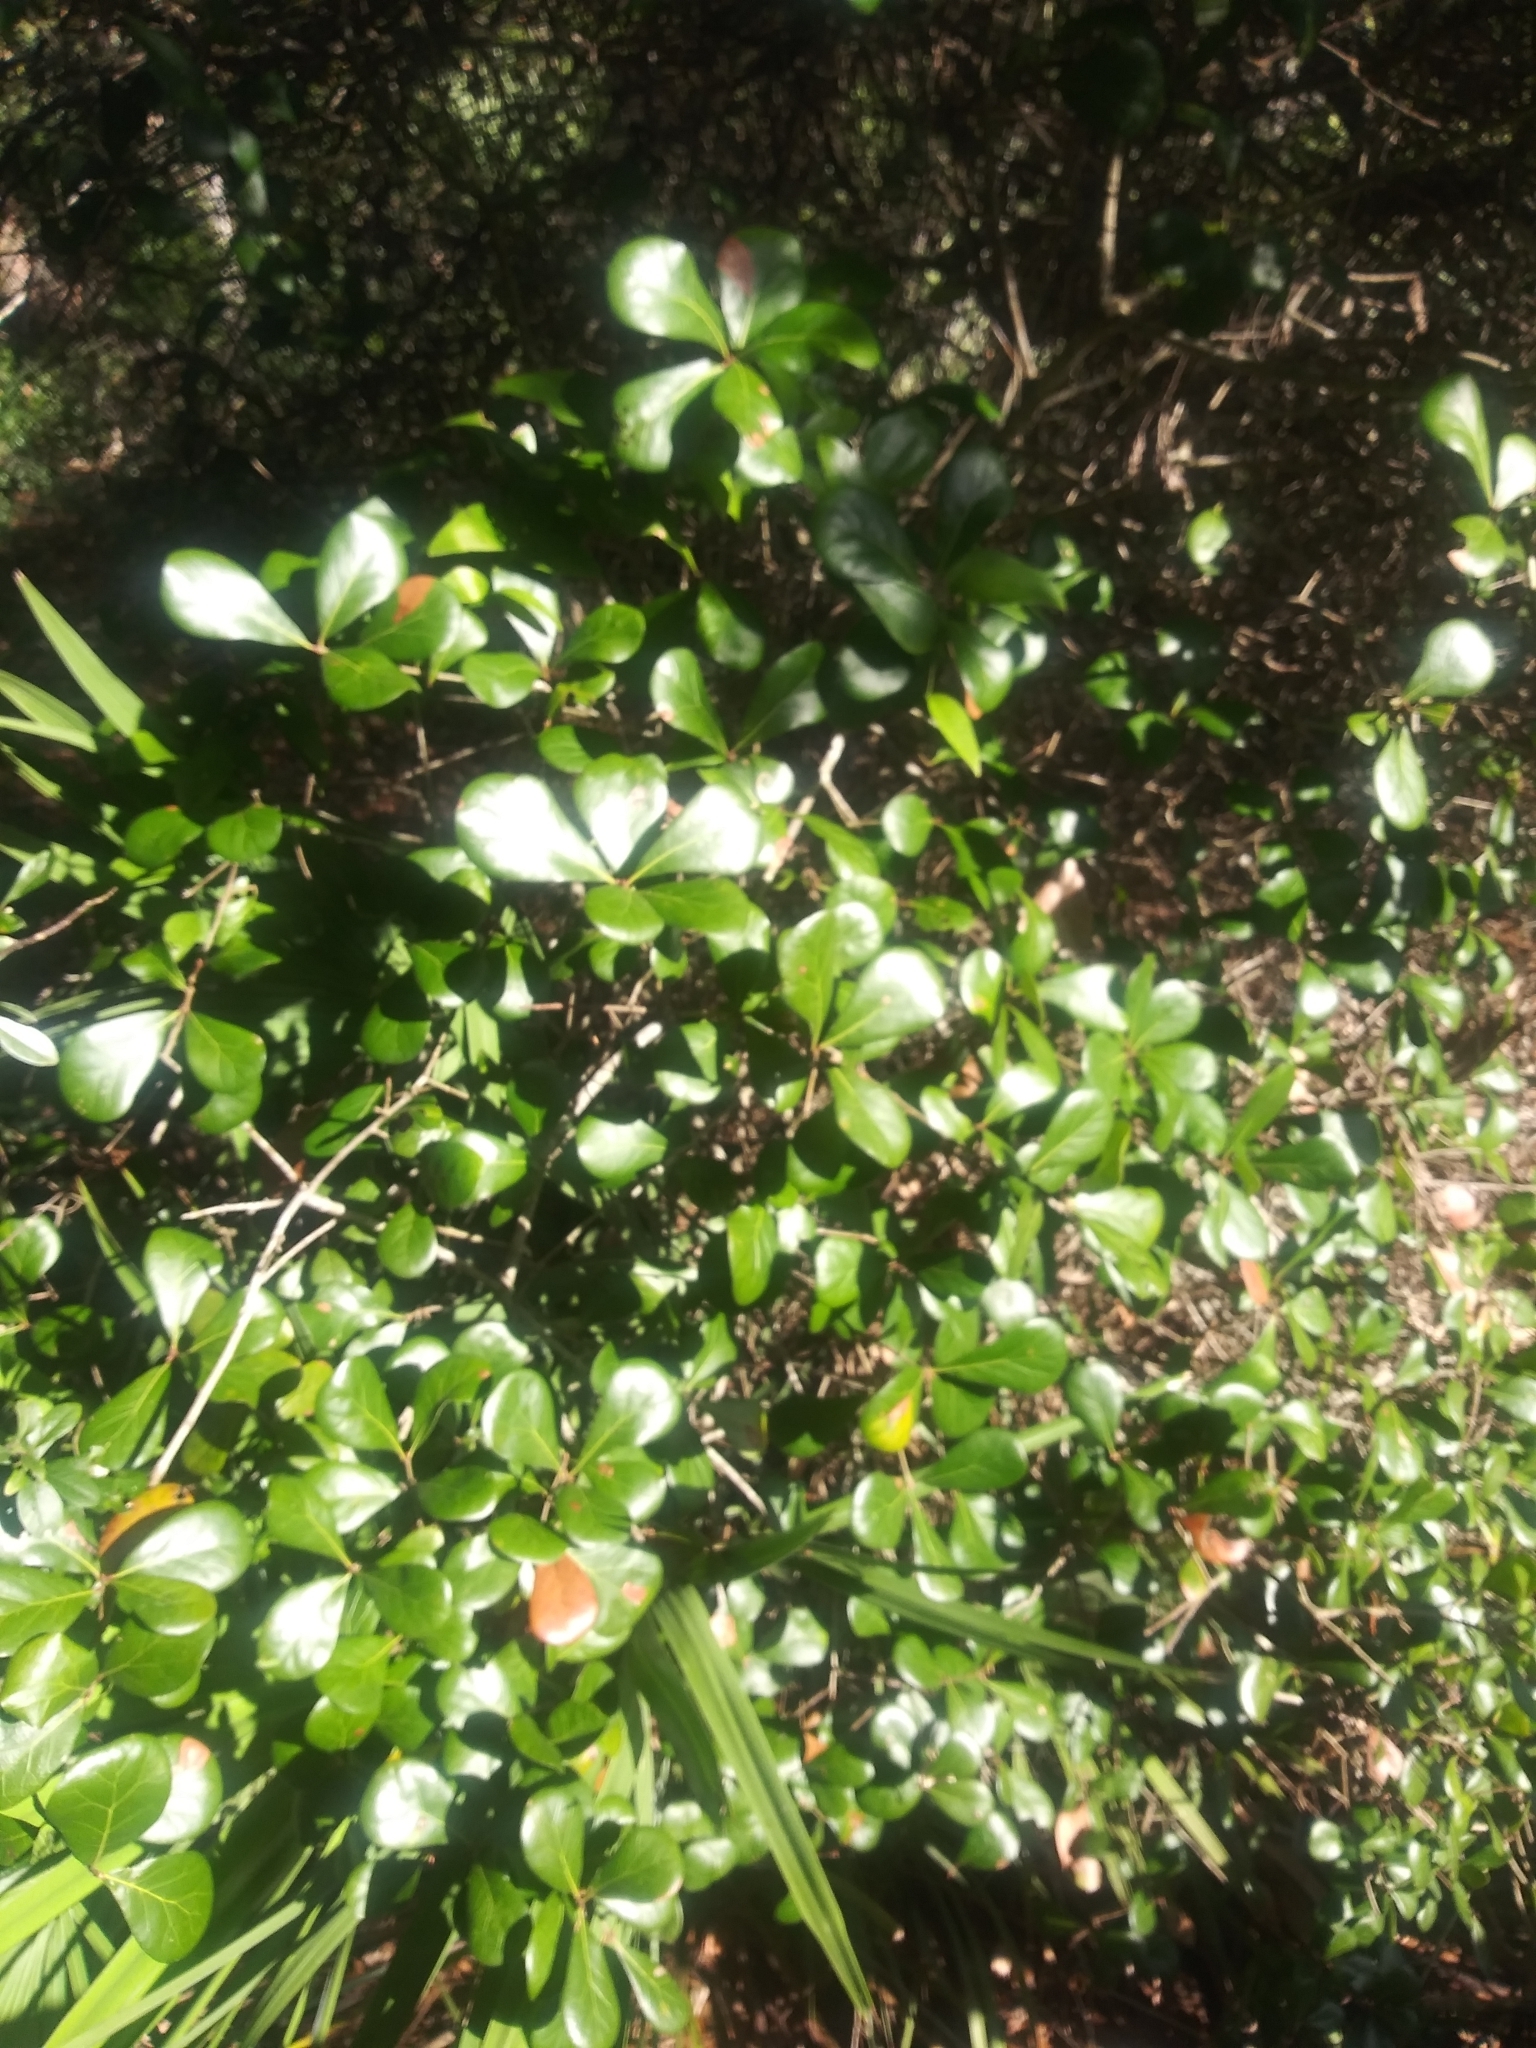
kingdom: Plantae
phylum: Tracheophyta
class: Magnoliopsida
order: Fagales
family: Fagaceae
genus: Quercus
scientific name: Quercus myrtifolia
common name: Myrtle oak
